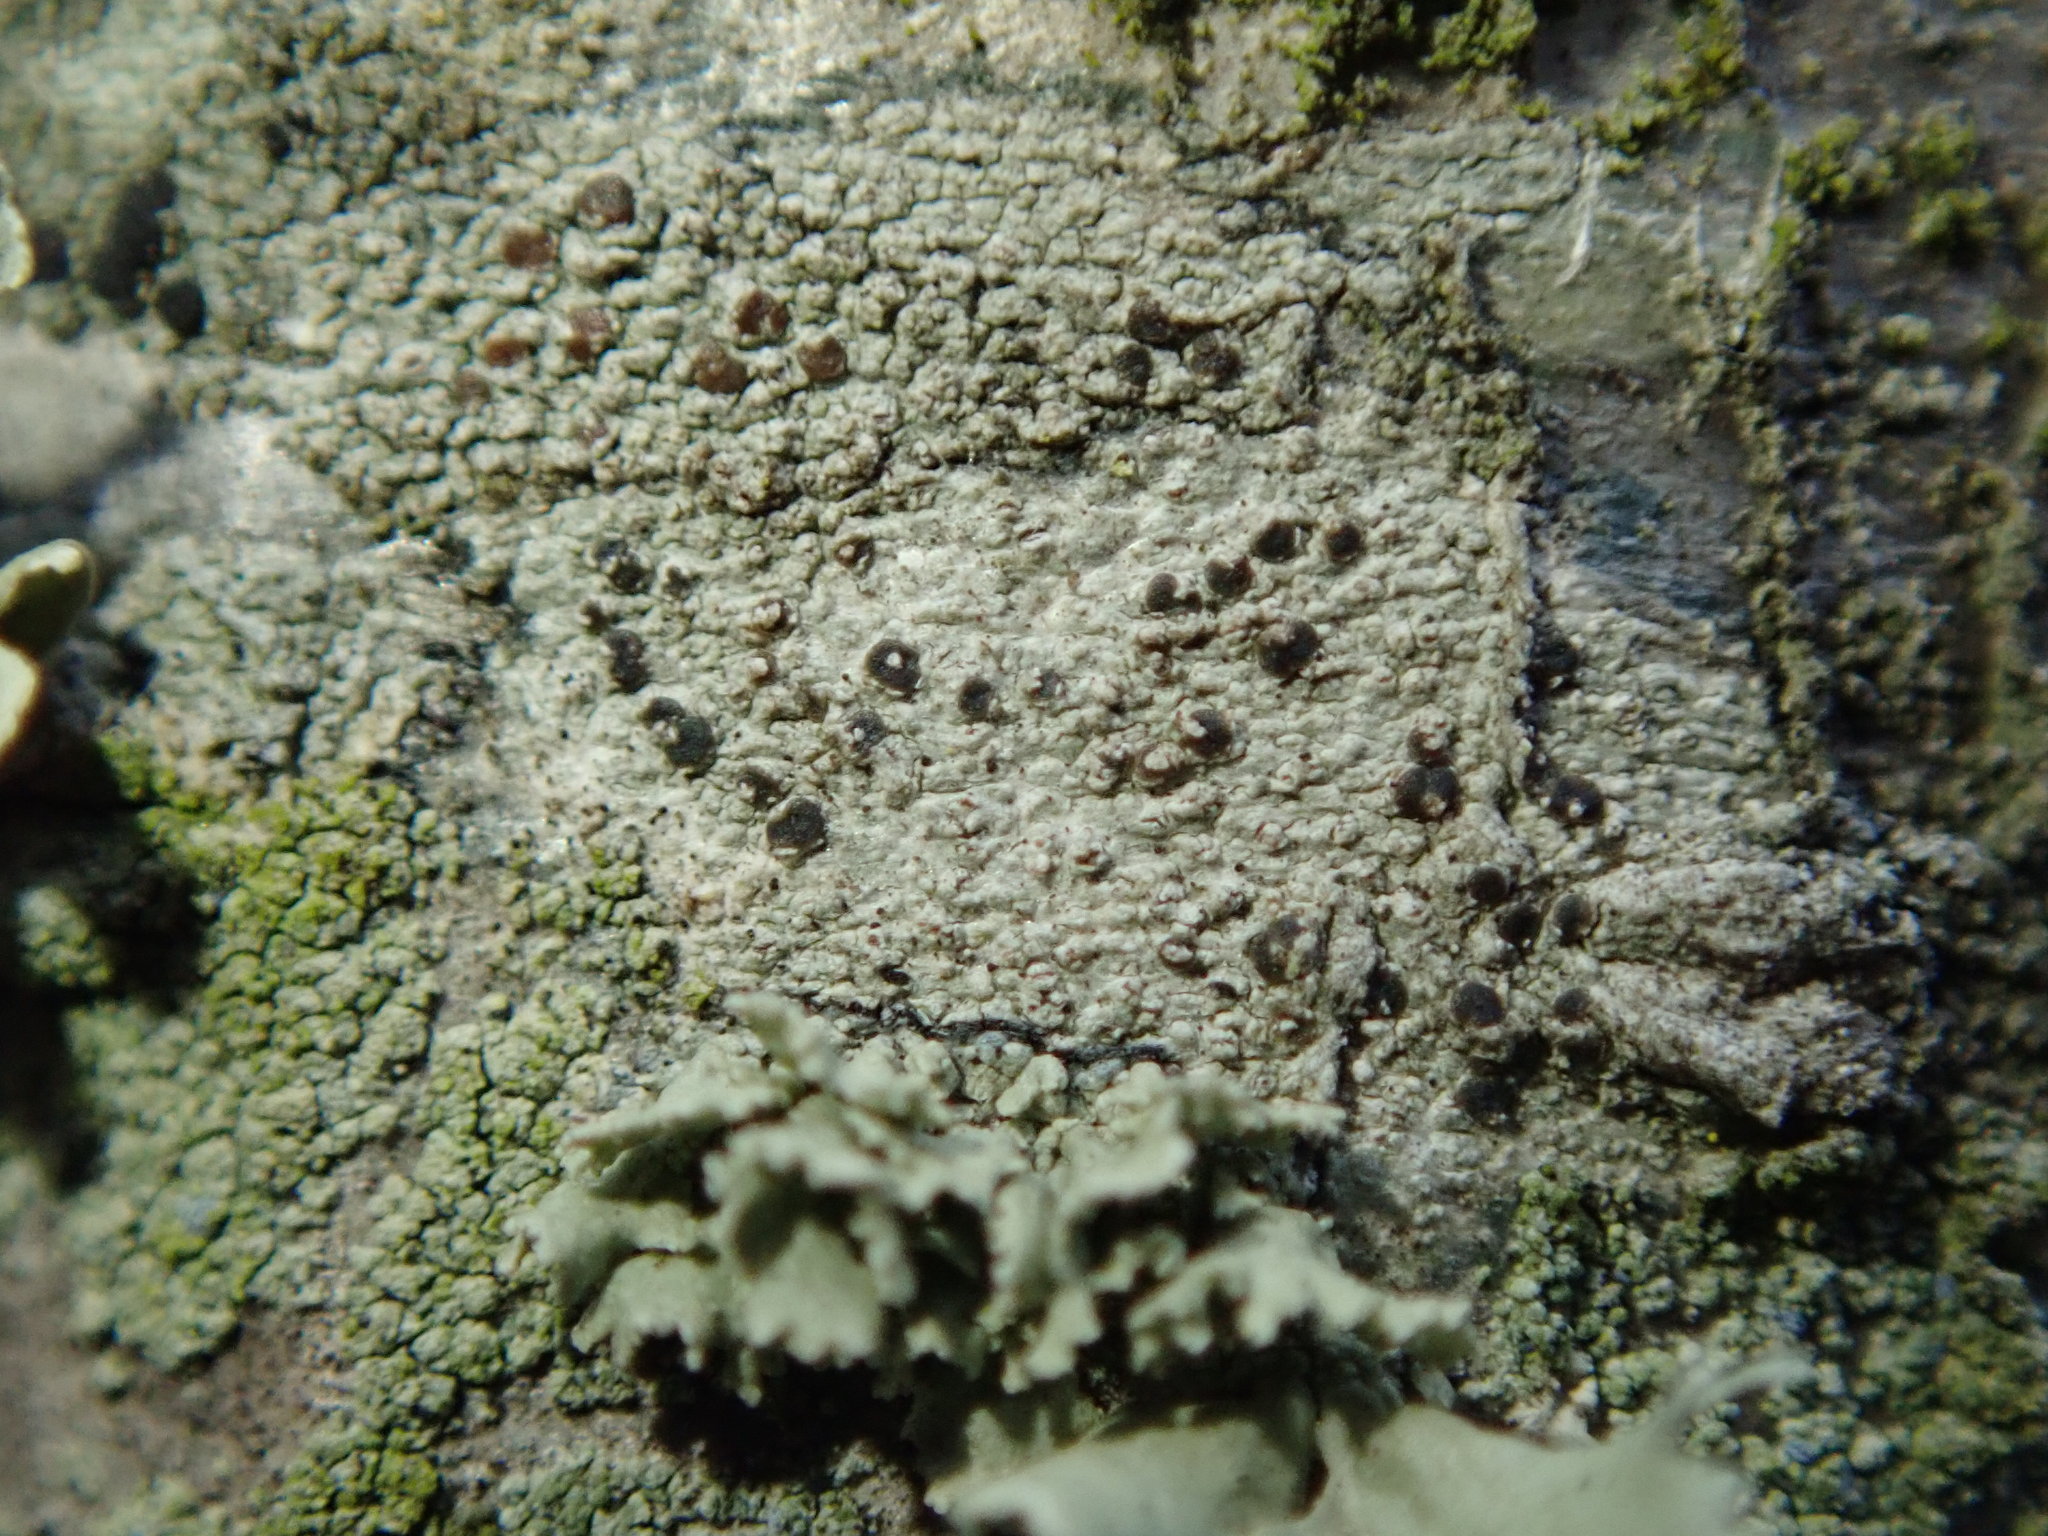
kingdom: Fungi
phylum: Ascomycota
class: Lecanoromycetes
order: Lecanorales
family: Lecanoraceae
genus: Traponora
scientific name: Traponora varians
